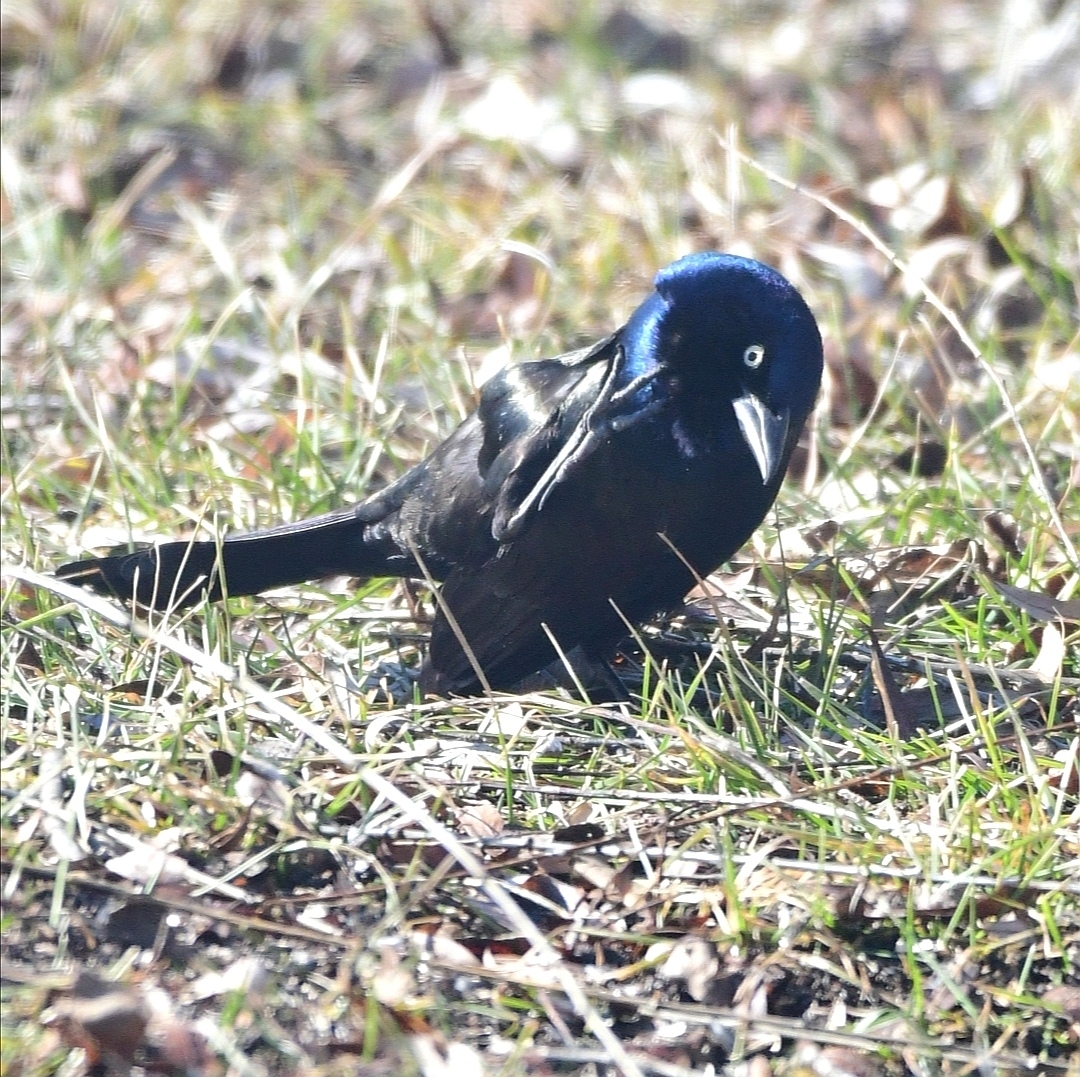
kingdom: Animalia
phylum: Chordata
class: Aves
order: Passeriformes
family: Icteridae
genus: Quiscalus
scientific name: Quiscalus quiscula
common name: Common grackle
